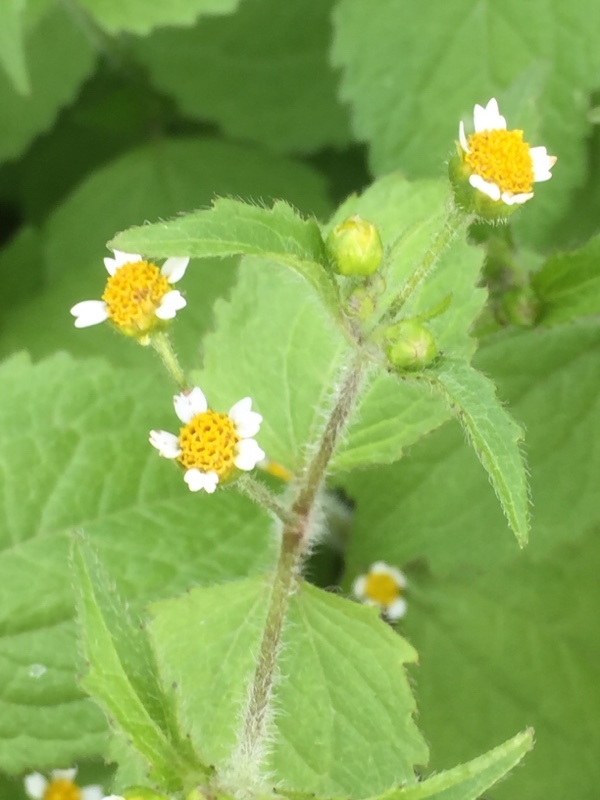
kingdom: Plantae
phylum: Tracheophyta
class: Magnoliopsida
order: Asterales
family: Asteraceae
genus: Galinsoga
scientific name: Galinsoga quadriradiata
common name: Shaggy soldier
